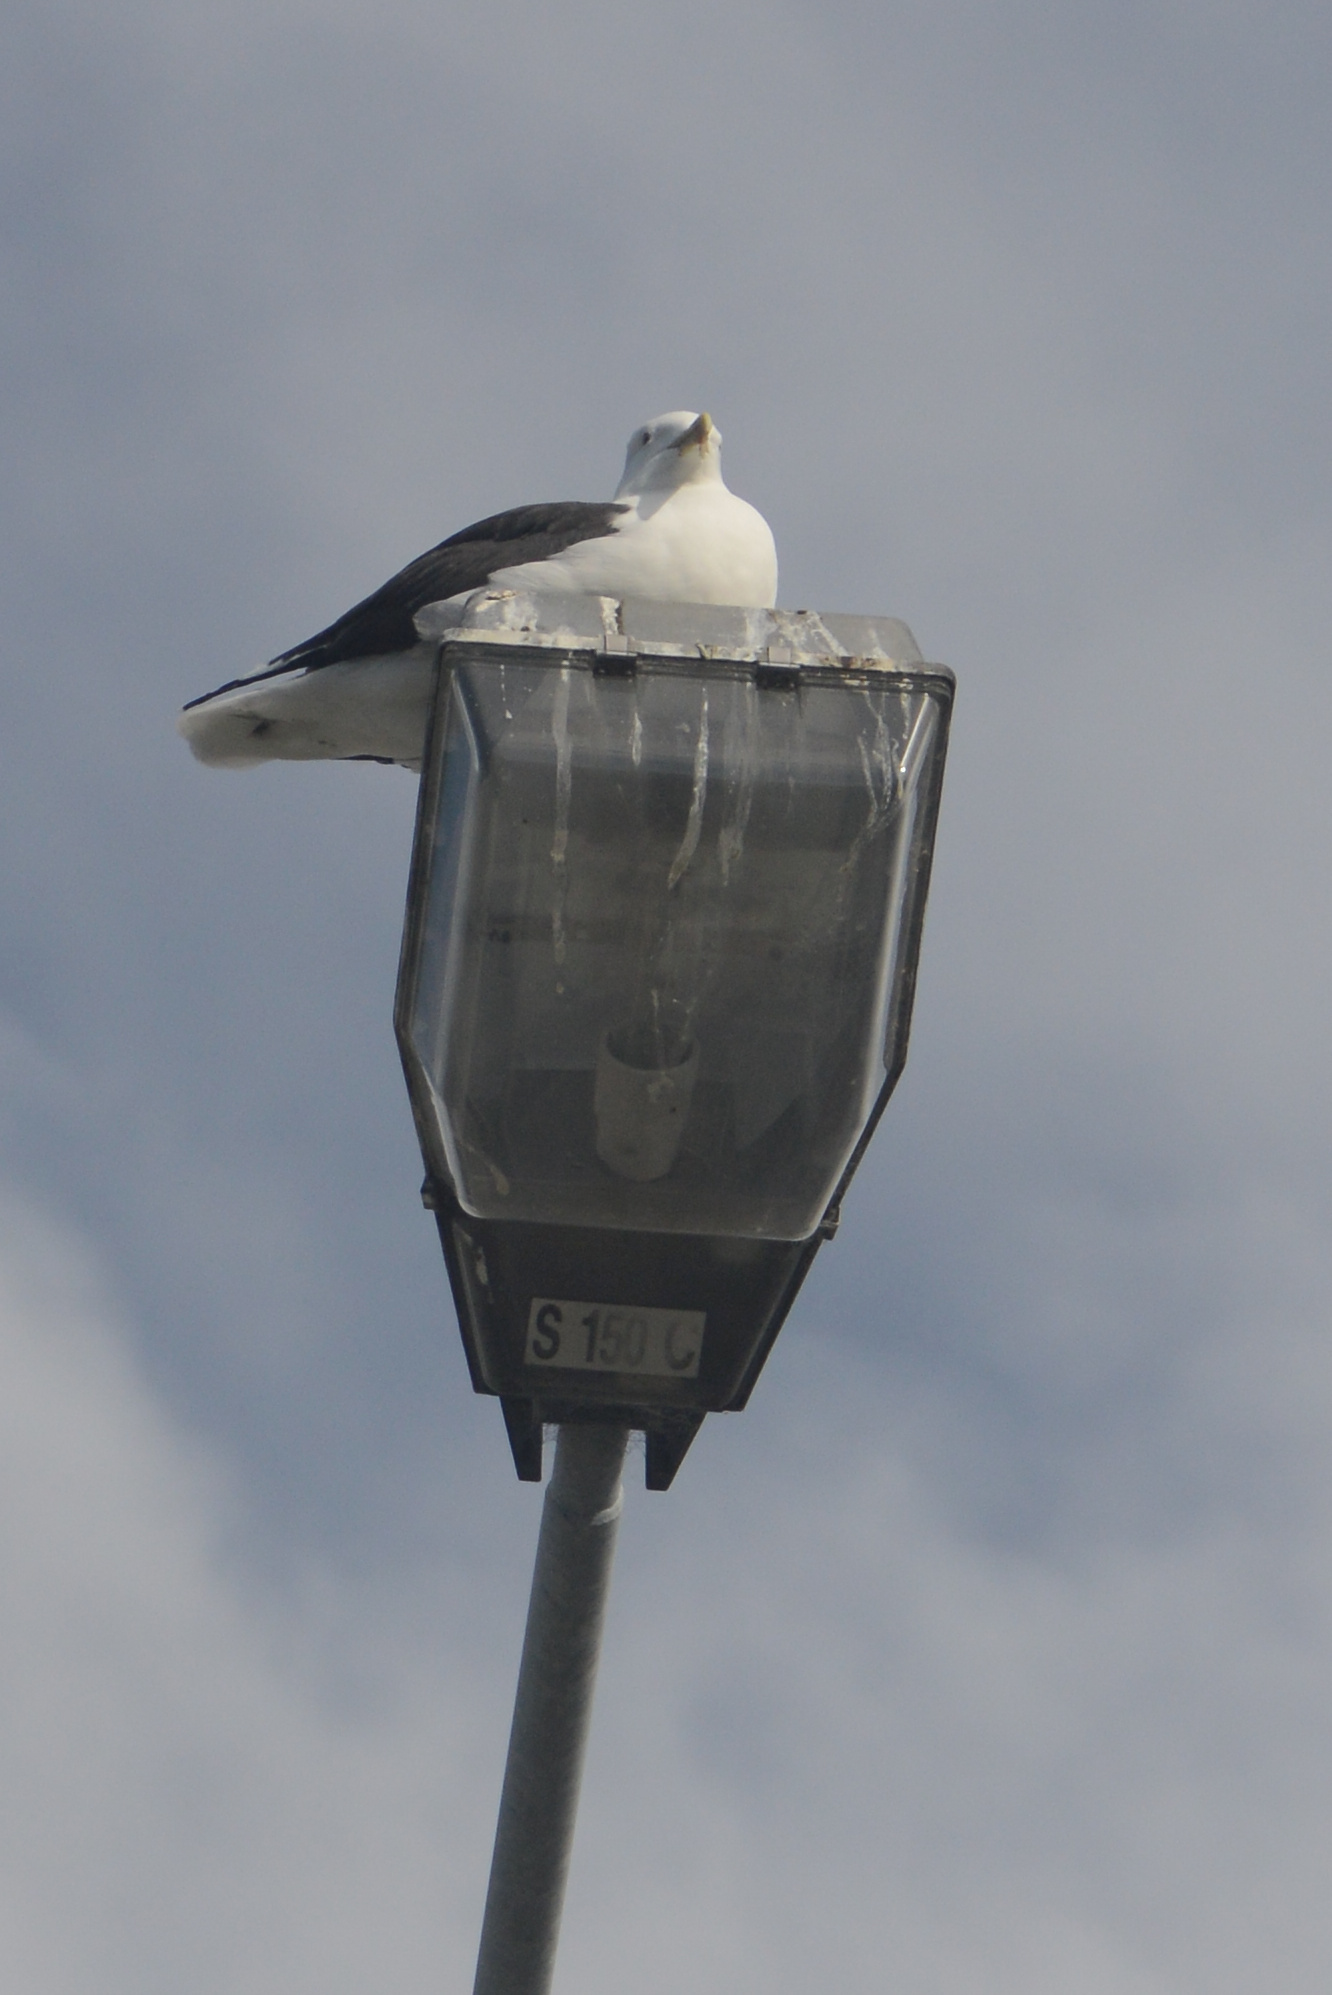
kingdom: Animalia
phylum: Chordata
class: Aves
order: Charadriiformes
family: Laridae
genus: Larus
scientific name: Larus dominicanus
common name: Kelp gull
